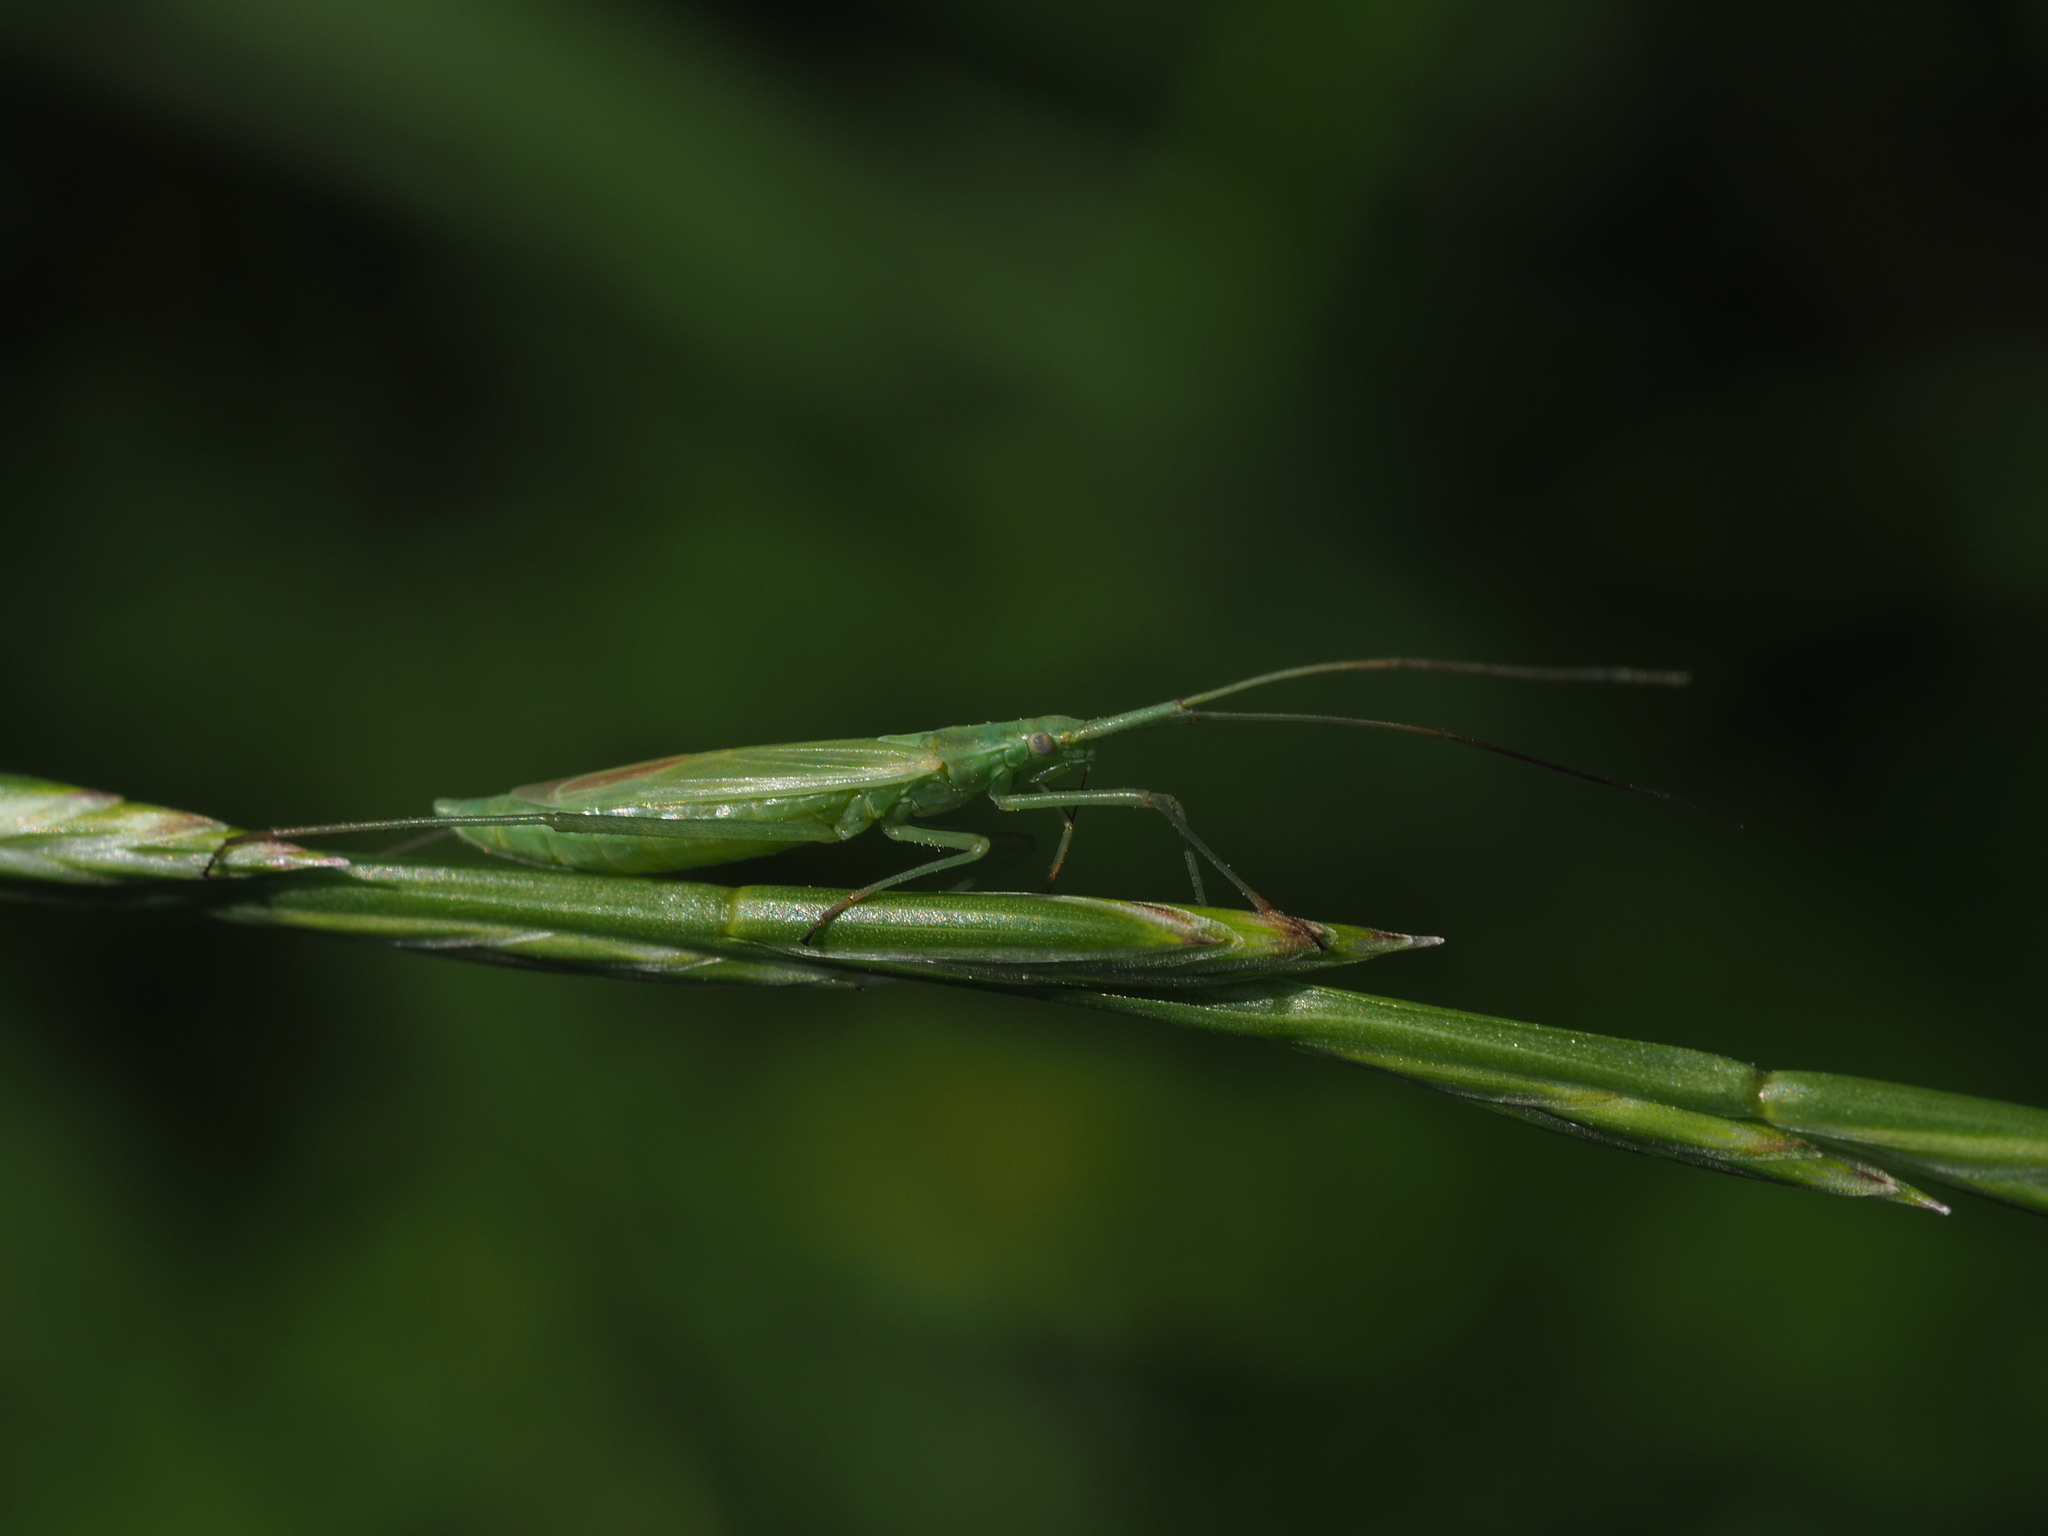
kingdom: Animalia
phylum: Arthropoda
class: Insecta
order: Hemiptera
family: Miridae
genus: Megaloceroea
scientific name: Megaloceroea recticornis
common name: Plant bug
